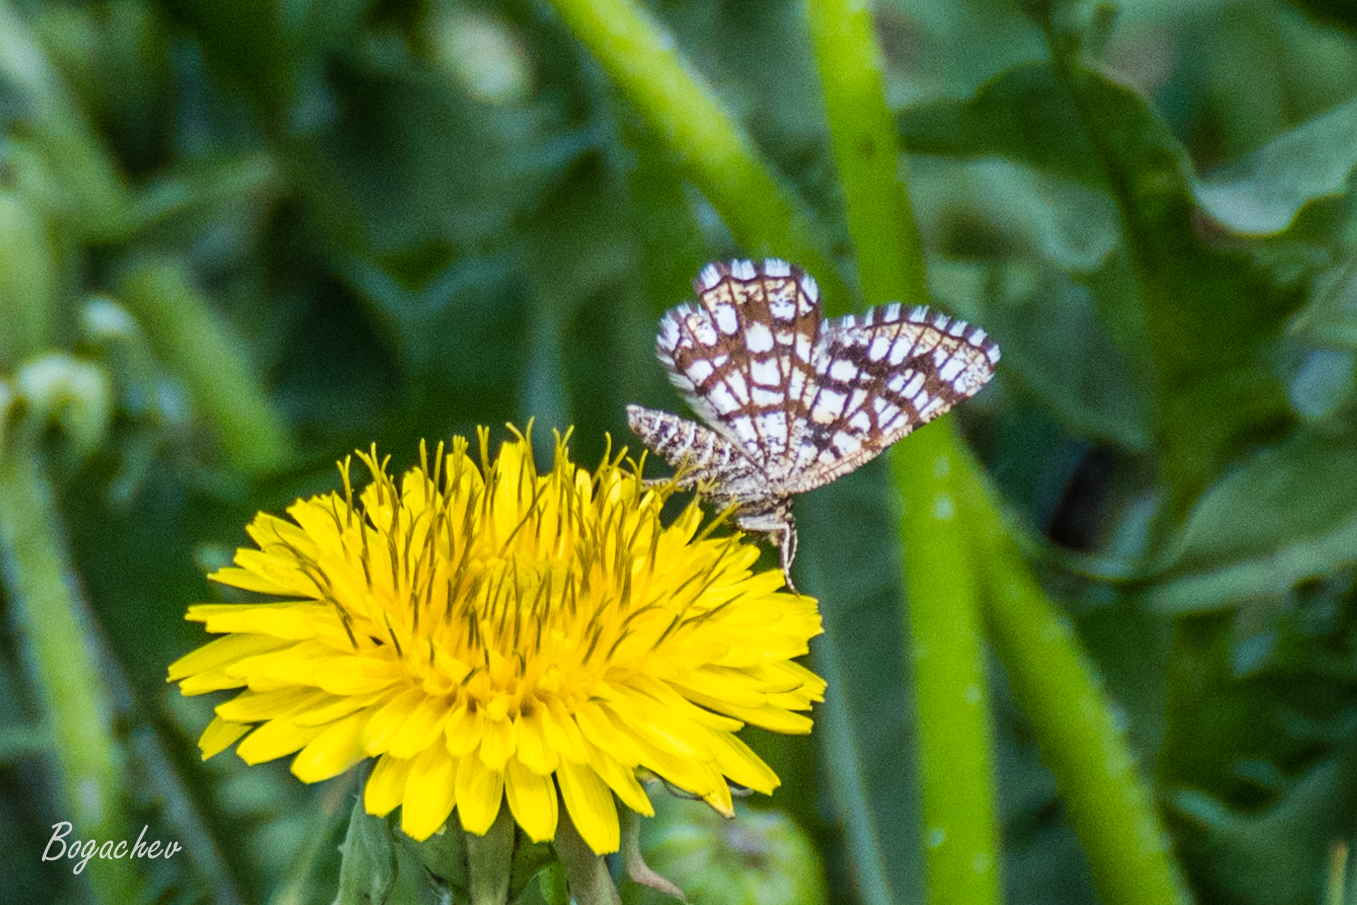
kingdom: Animalia
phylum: Arthropoda
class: Insecta
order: Lepidoptera
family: Geometridae
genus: Chiasmia
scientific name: Chiasmia clathrata
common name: Latticed heath
